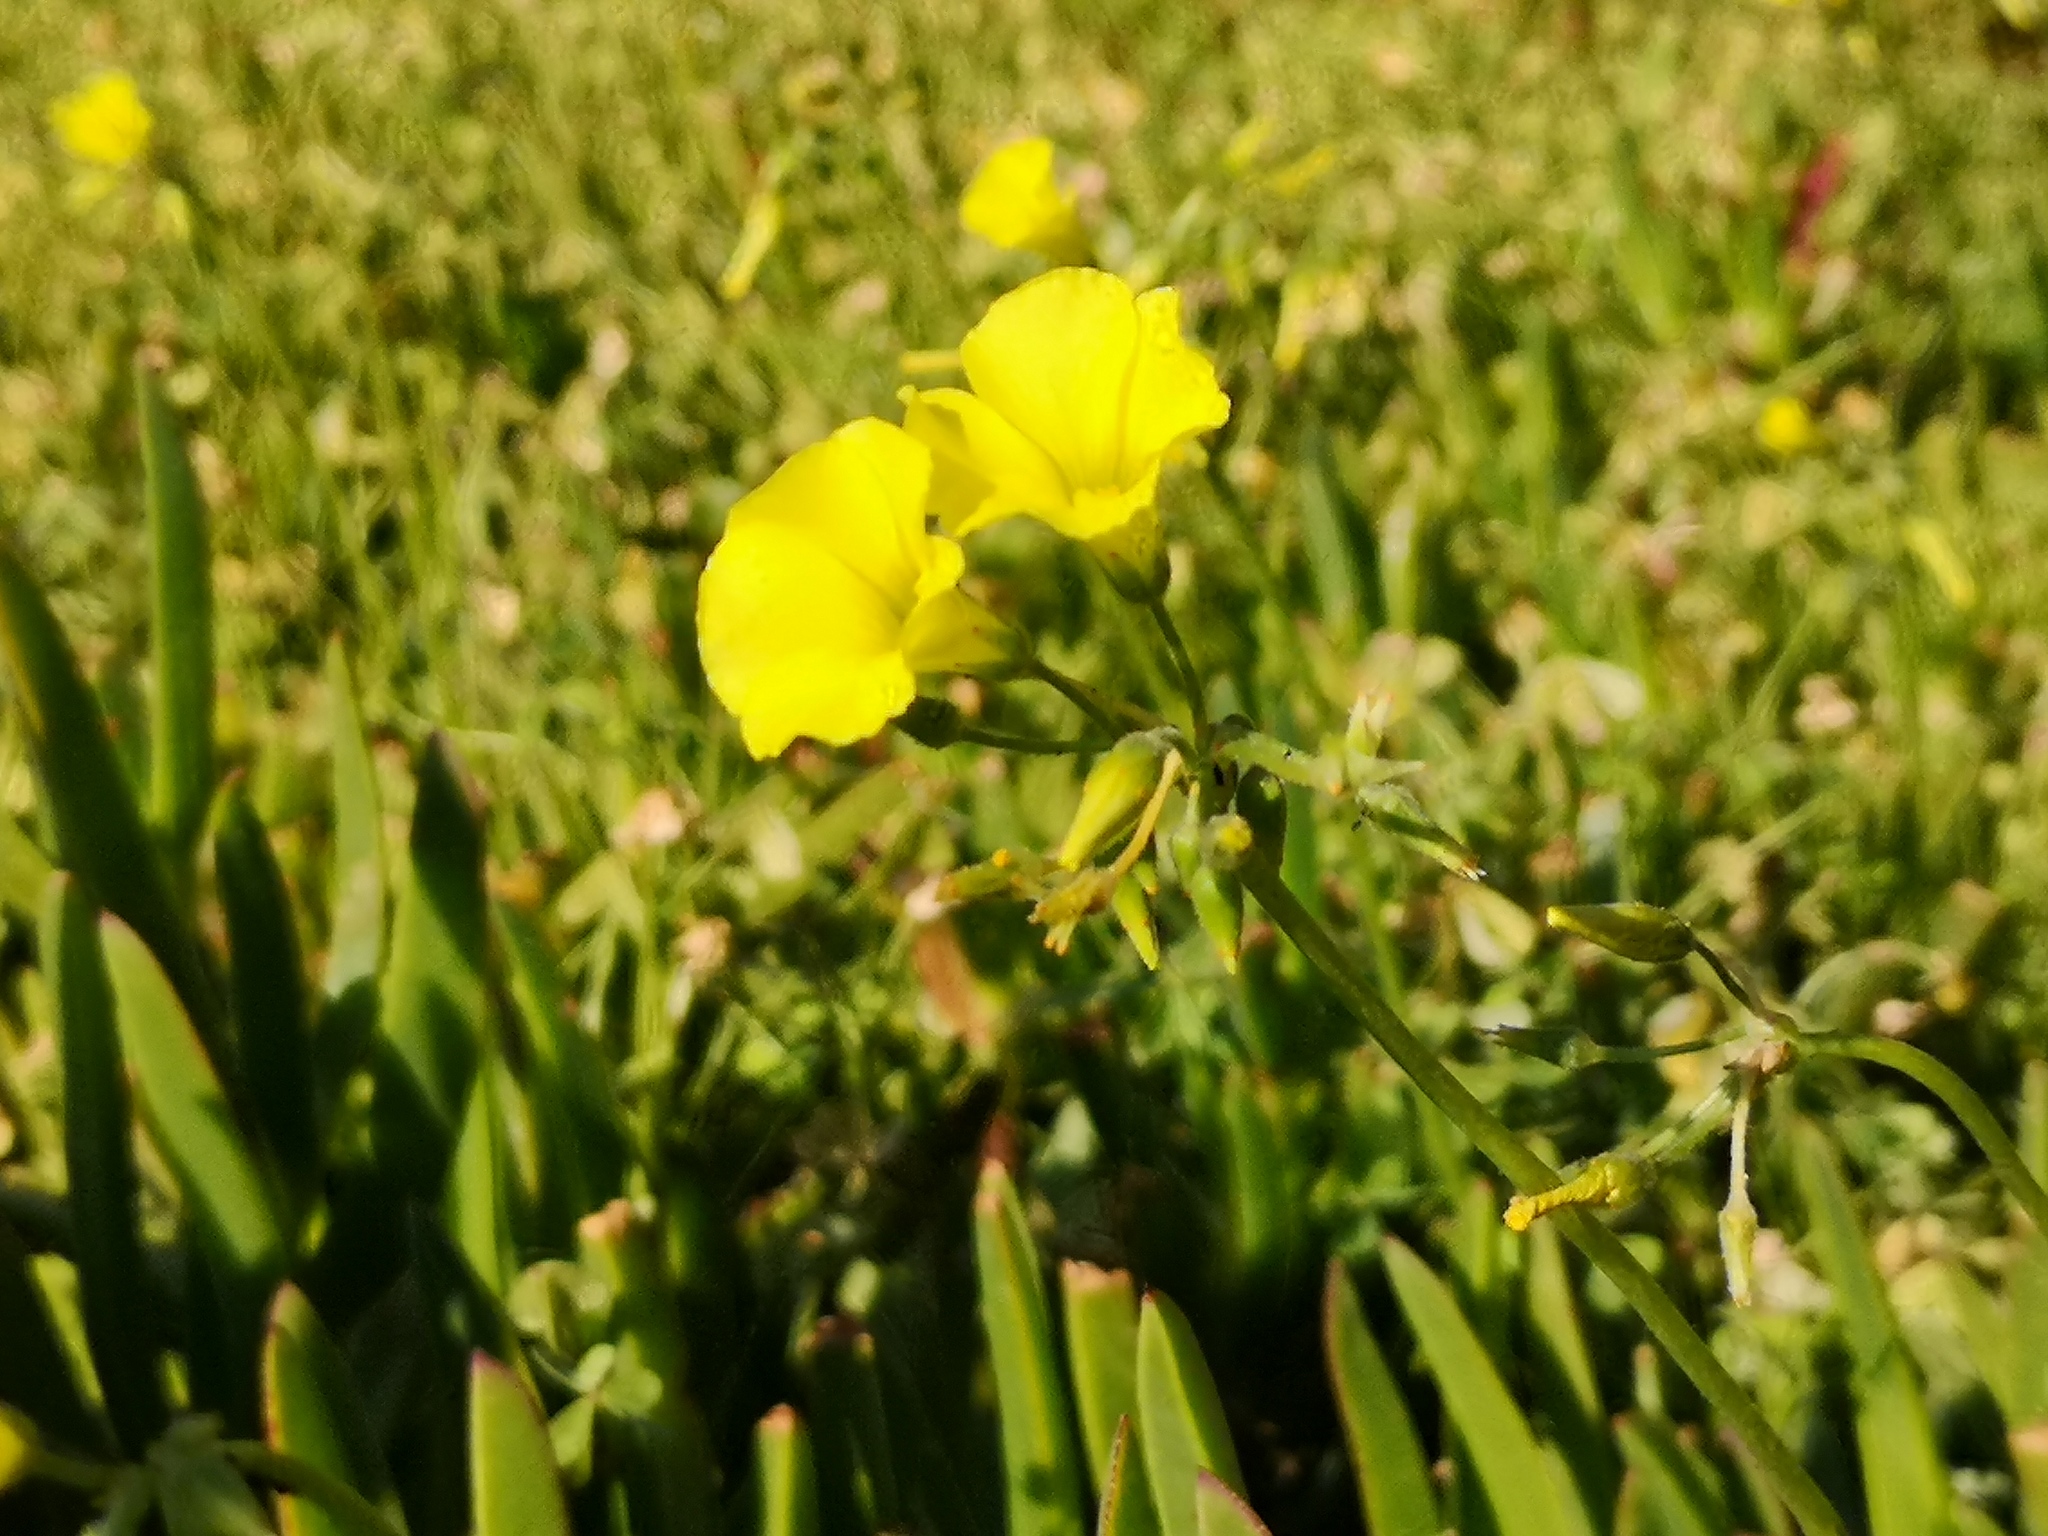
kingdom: Plantae
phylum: Tracheophyta
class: Magnoliopsida
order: Oxalidales
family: Oxalidaceae
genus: Oxalis
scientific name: Oxalis pes-caprae
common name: Bermuda-buttercup
